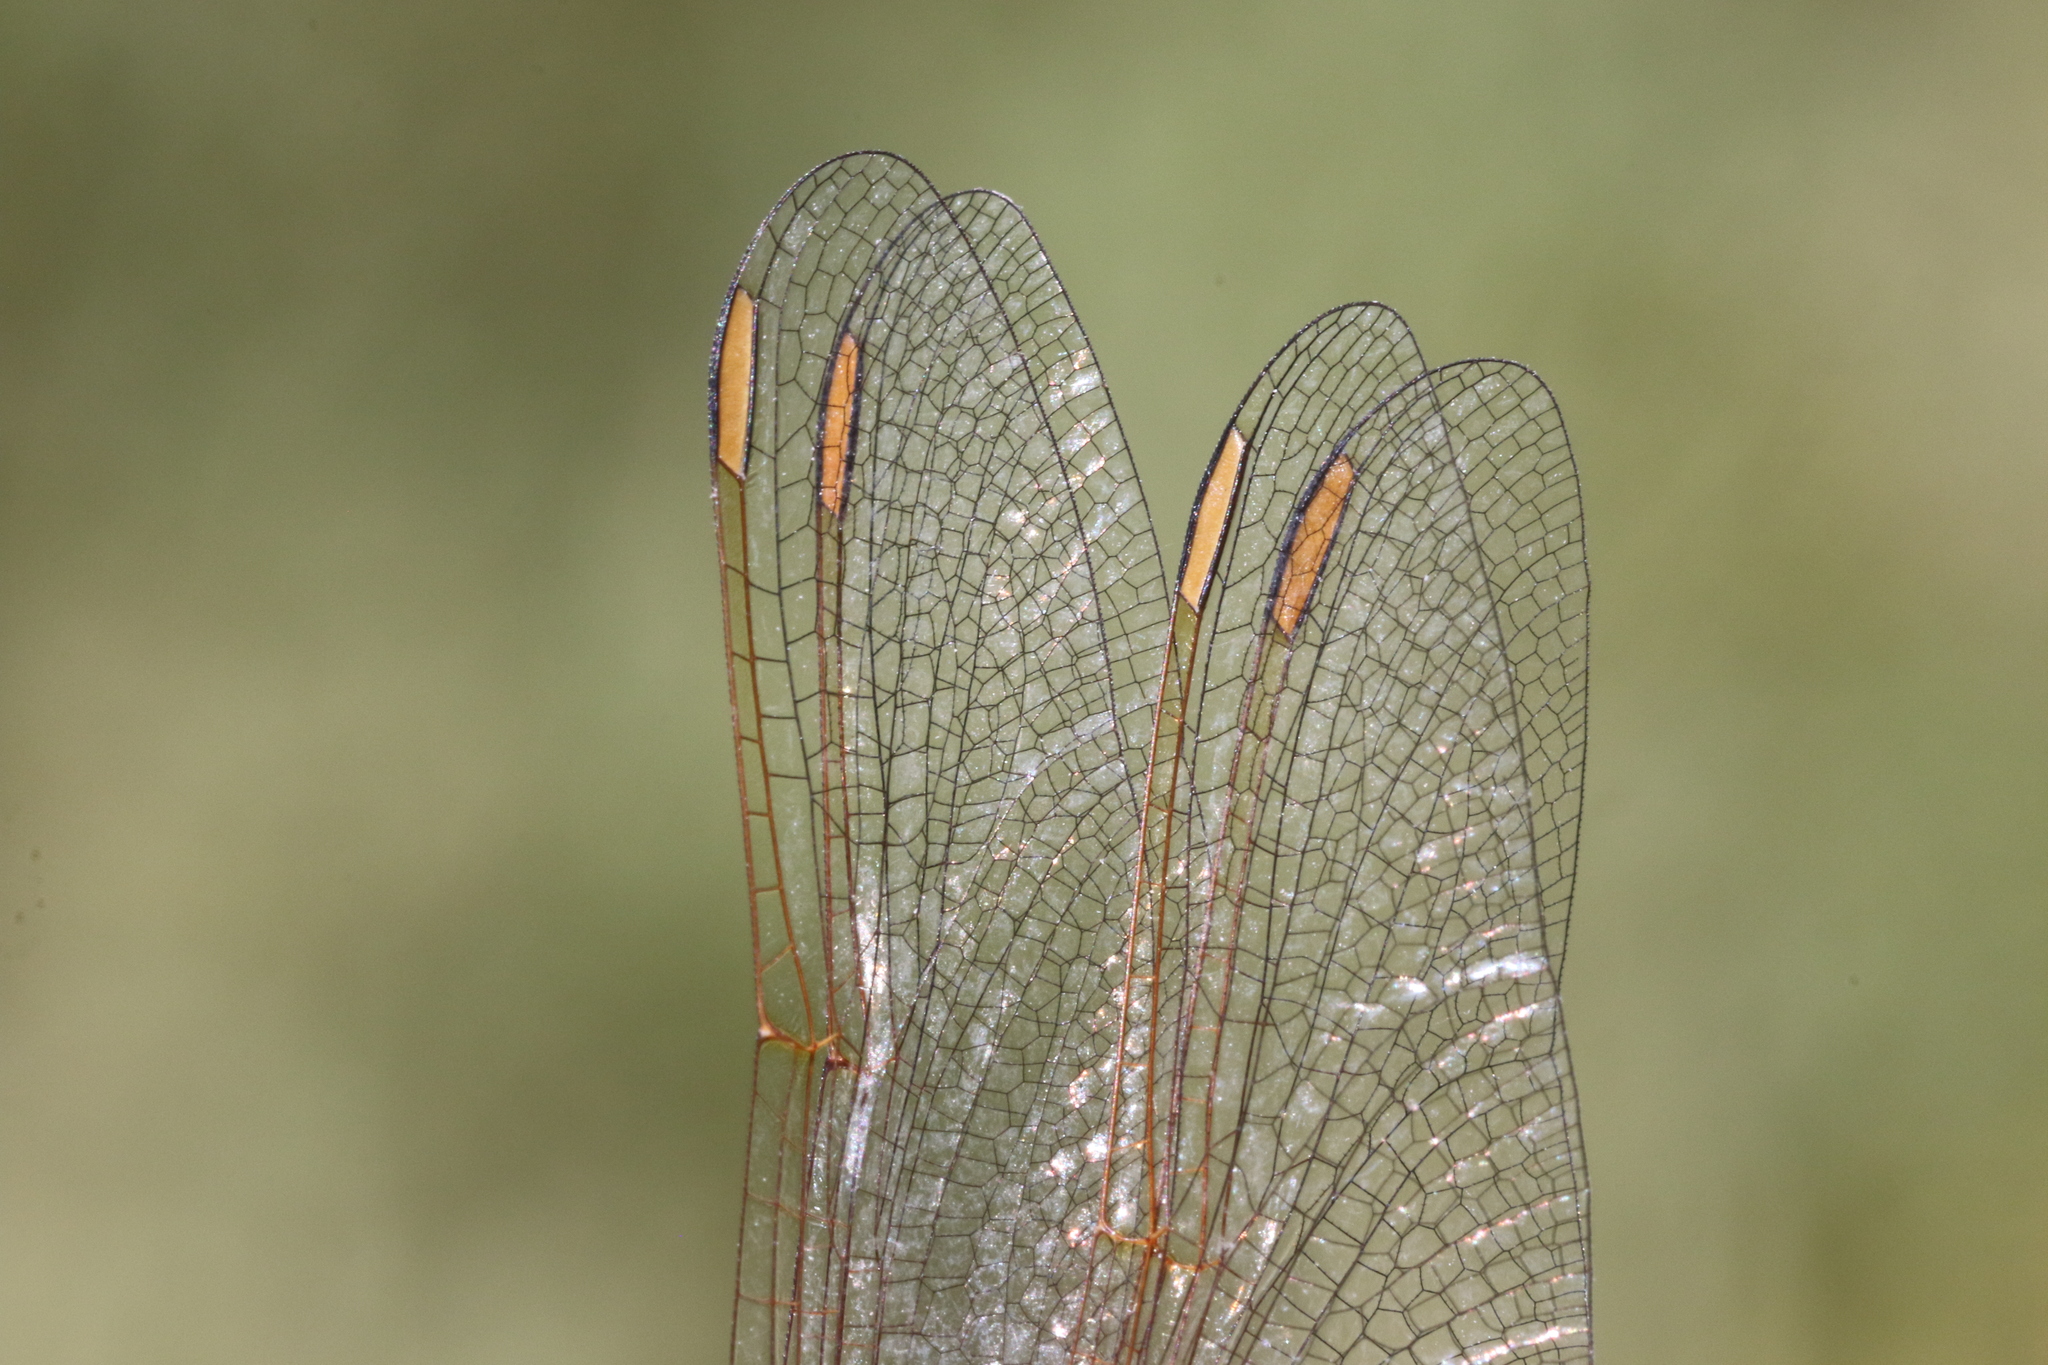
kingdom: Animalia
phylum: Arthropoda
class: Insecta
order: Odonata
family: Libellulidae
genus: Sympetrum
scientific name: Sympetrum costiferum
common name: Saffron-winged meadowhawk
